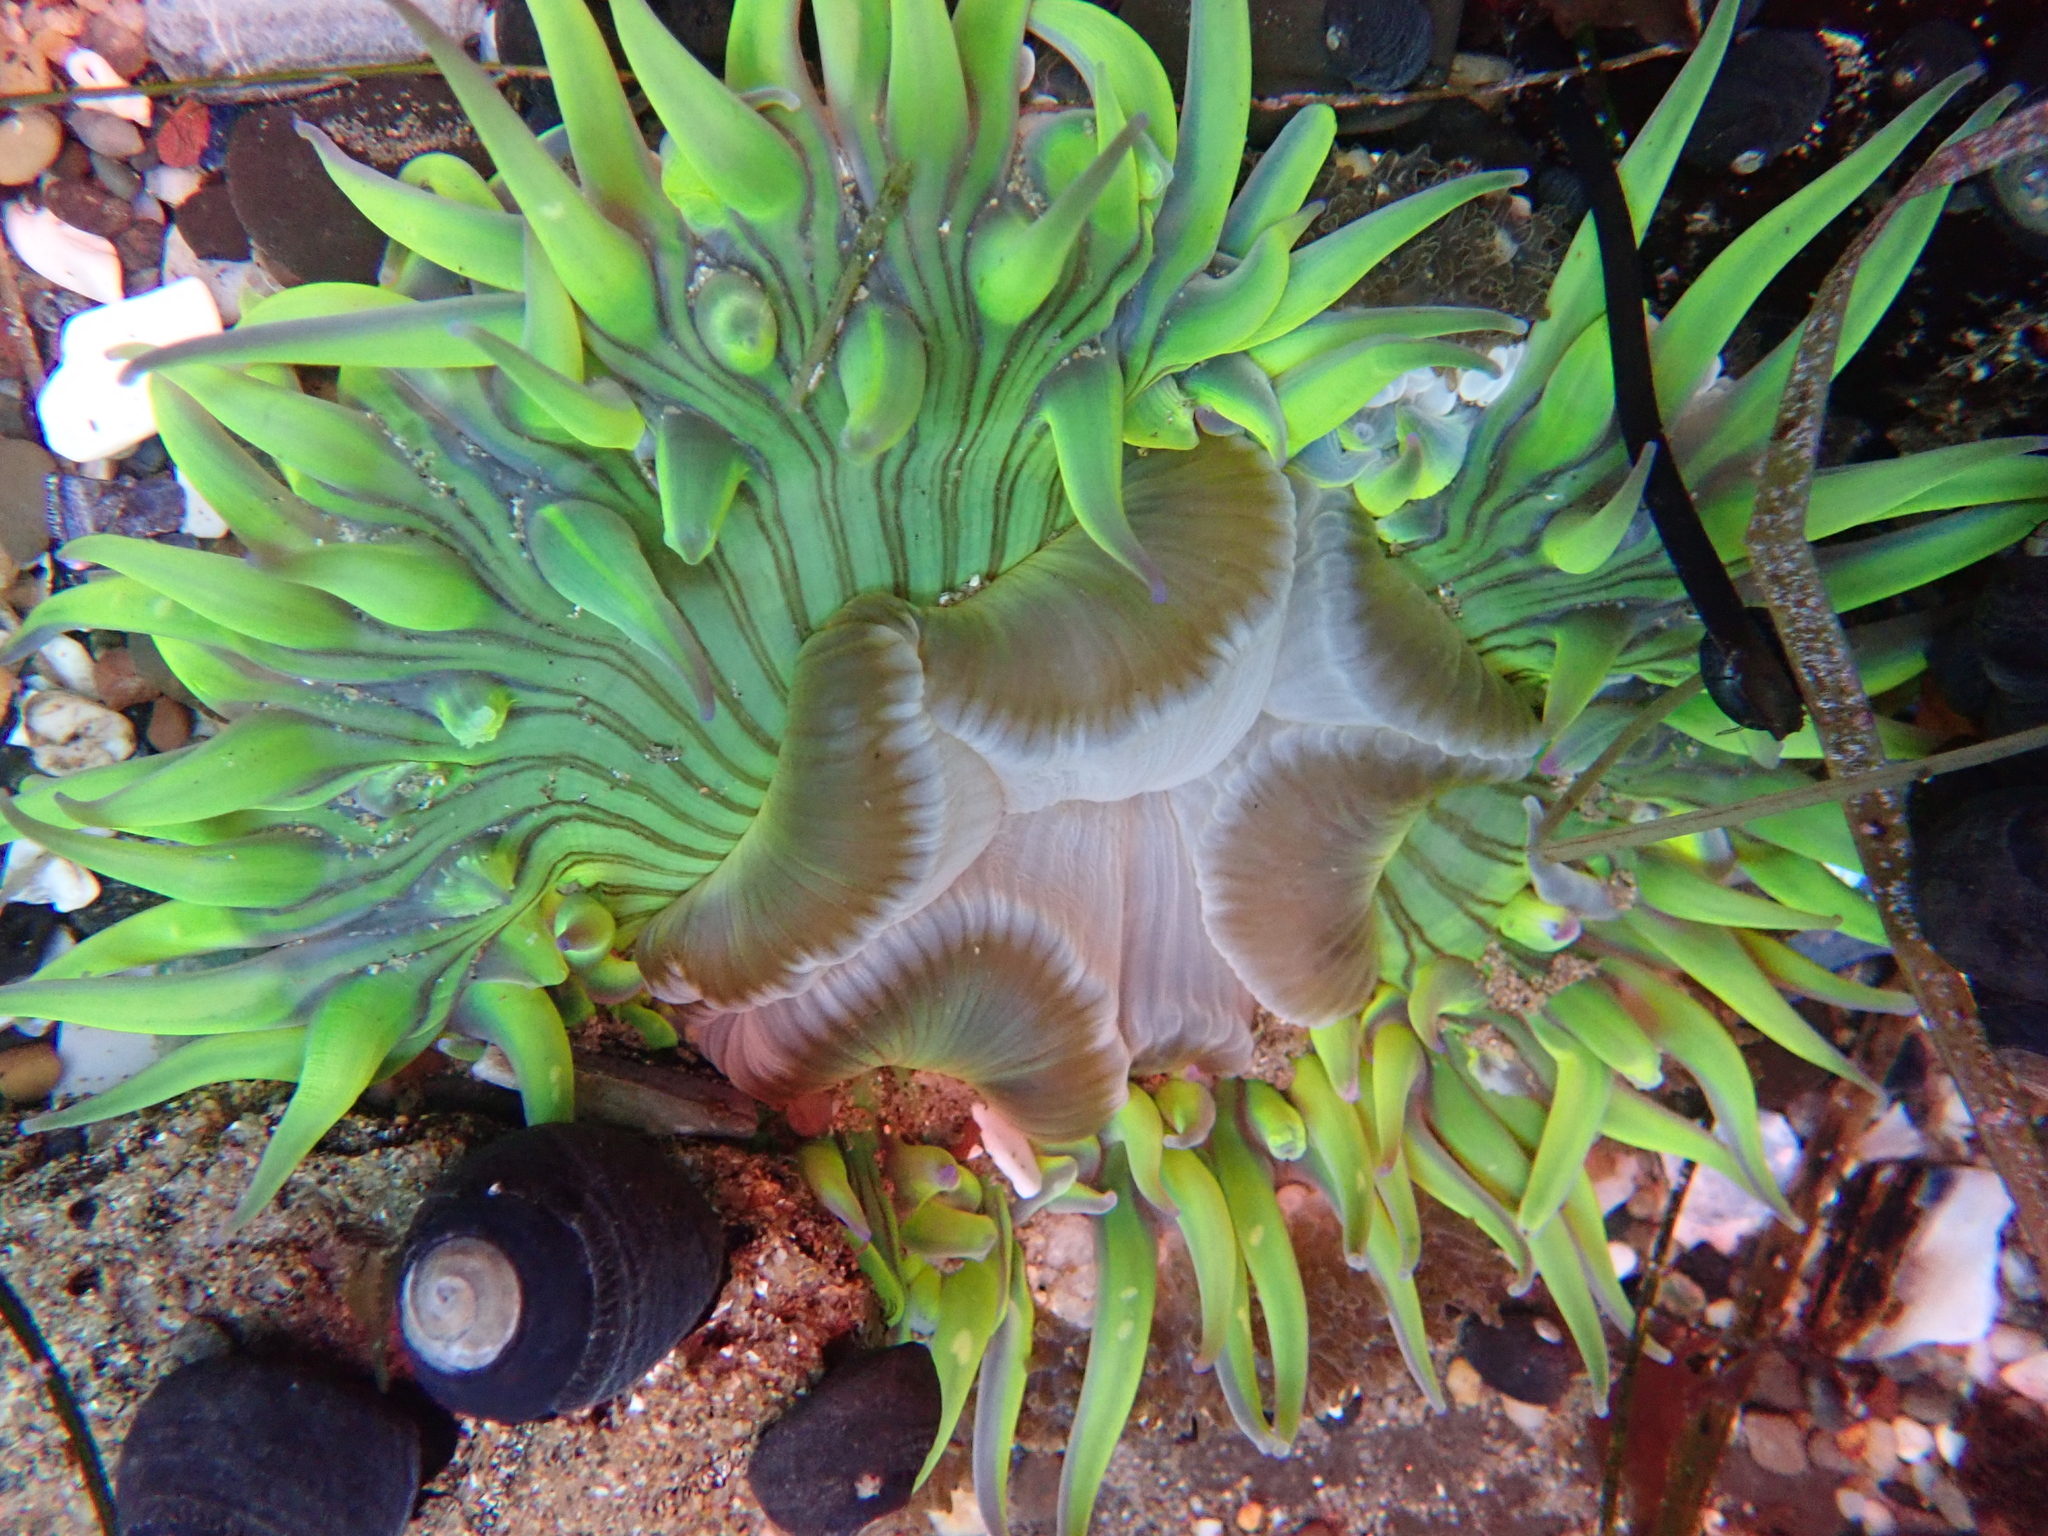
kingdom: Animalia
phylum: Cnidaria
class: Anthozoa
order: Actiniaria
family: Actiniidae
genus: Anthopleura
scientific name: Anthopleura sola
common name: Sun anemone
